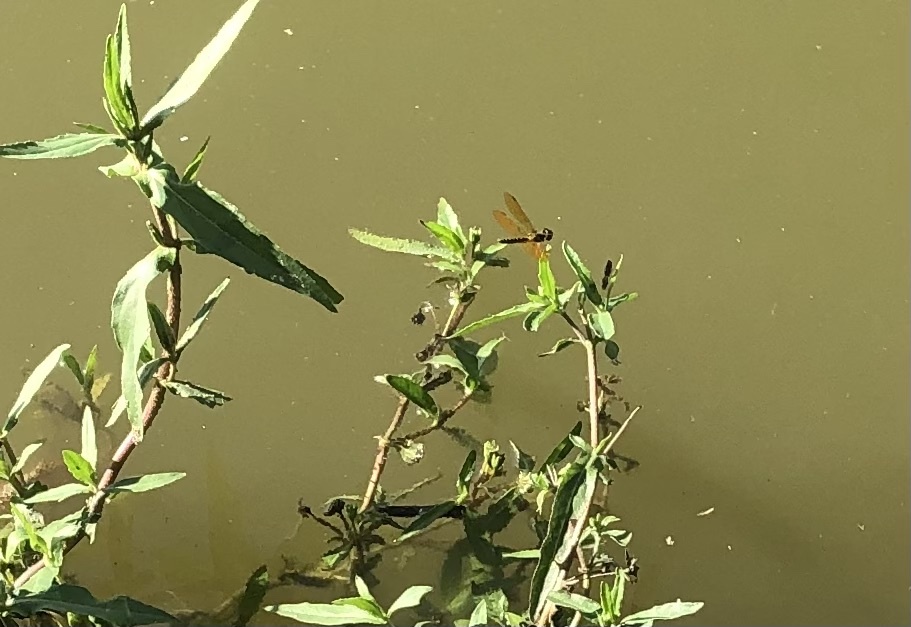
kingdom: Animalia
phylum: Arthropoda
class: Insecta
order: Odonata
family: Libellulidae
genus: Perithemis
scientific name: Perithemis tenera
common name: Eastern amberwing
